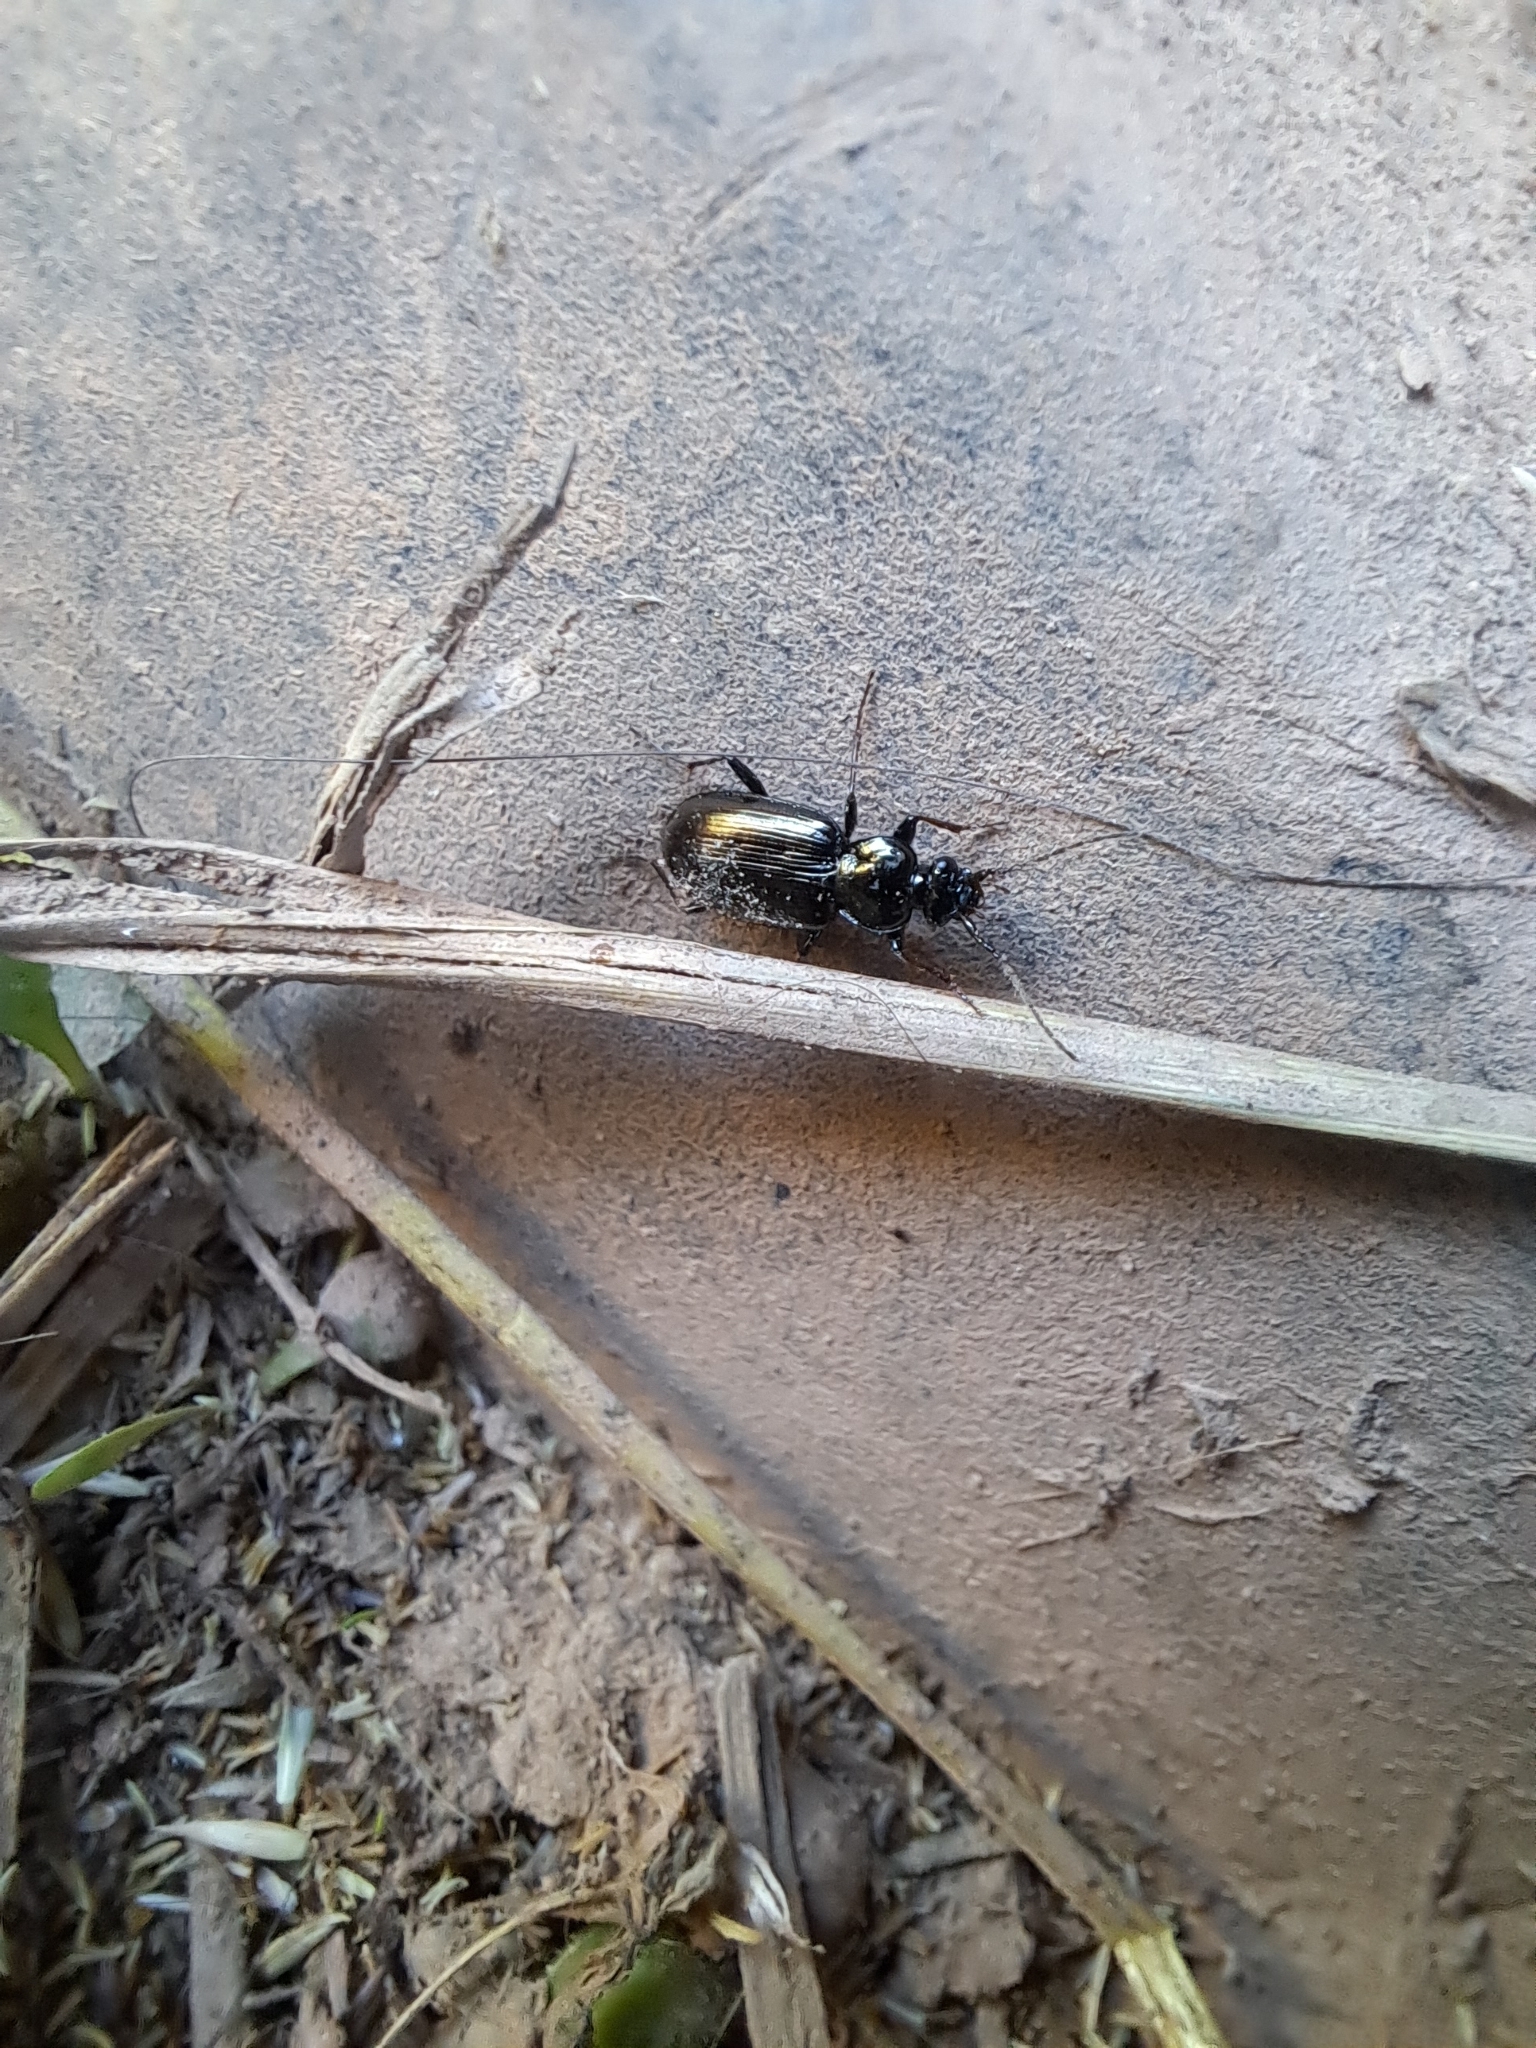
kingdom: Animalia
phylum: Arthropoda
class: Insecta
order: Coleoptera
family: Carabidae
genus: Loricera
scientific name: Loricera pilicornis
